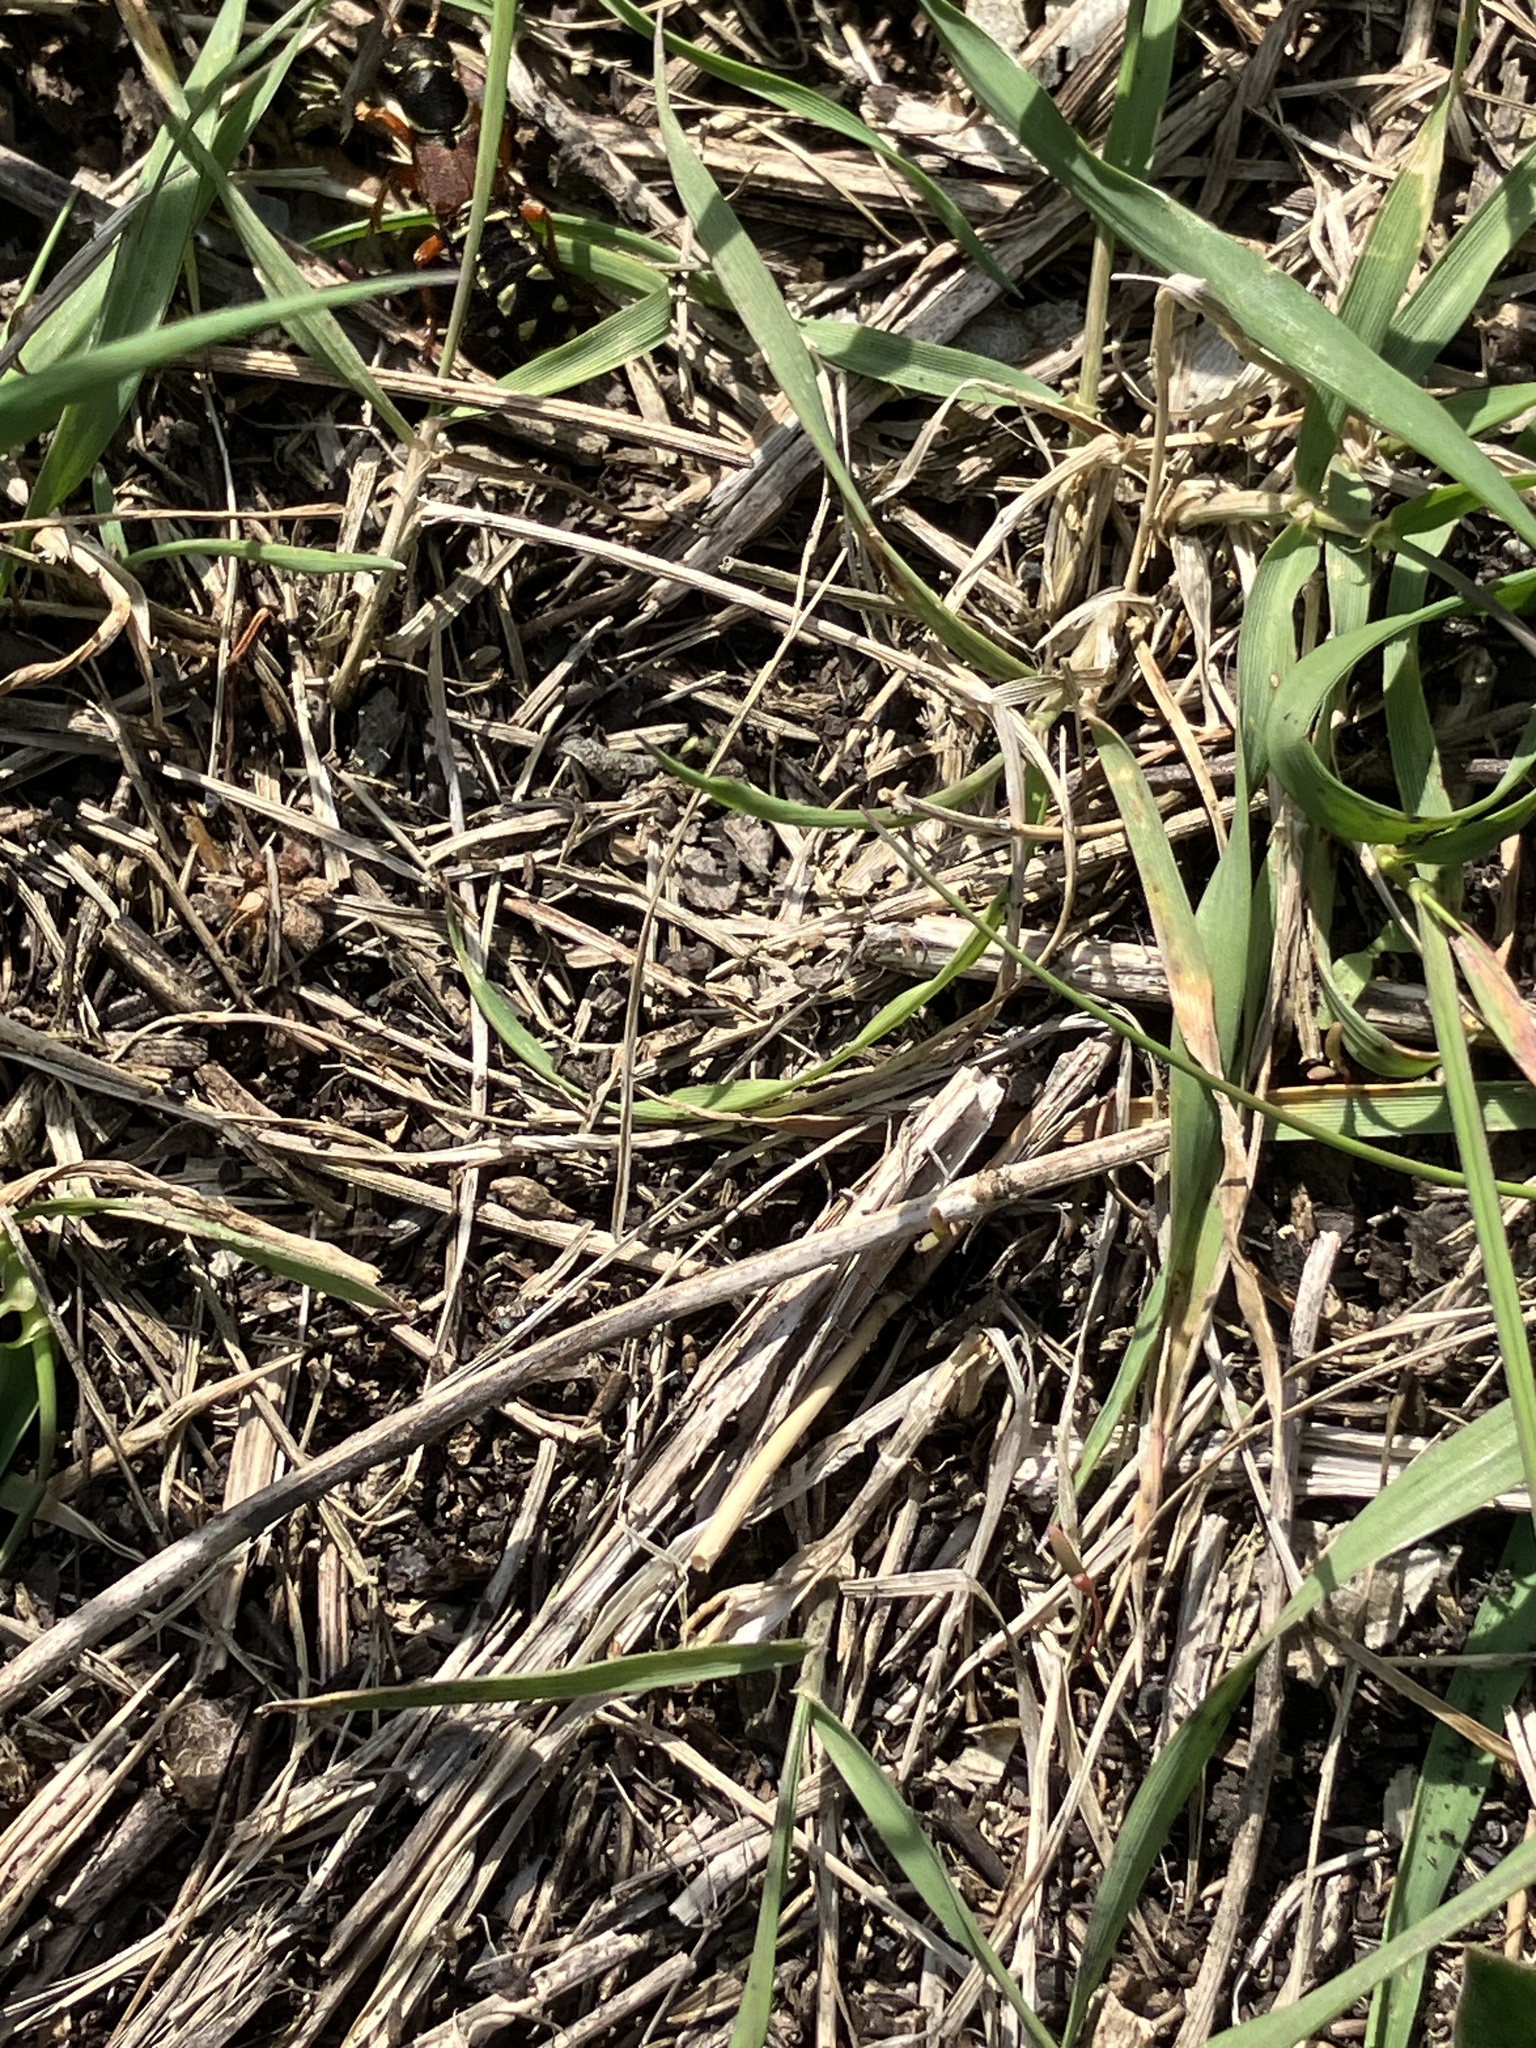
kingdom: Animalia
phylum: Arthropoda
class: Insecta
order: Coleoptera
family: Staphylinidae
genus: Staphylinus
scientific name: Staphylinus erythropterus
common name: Staph beetle
